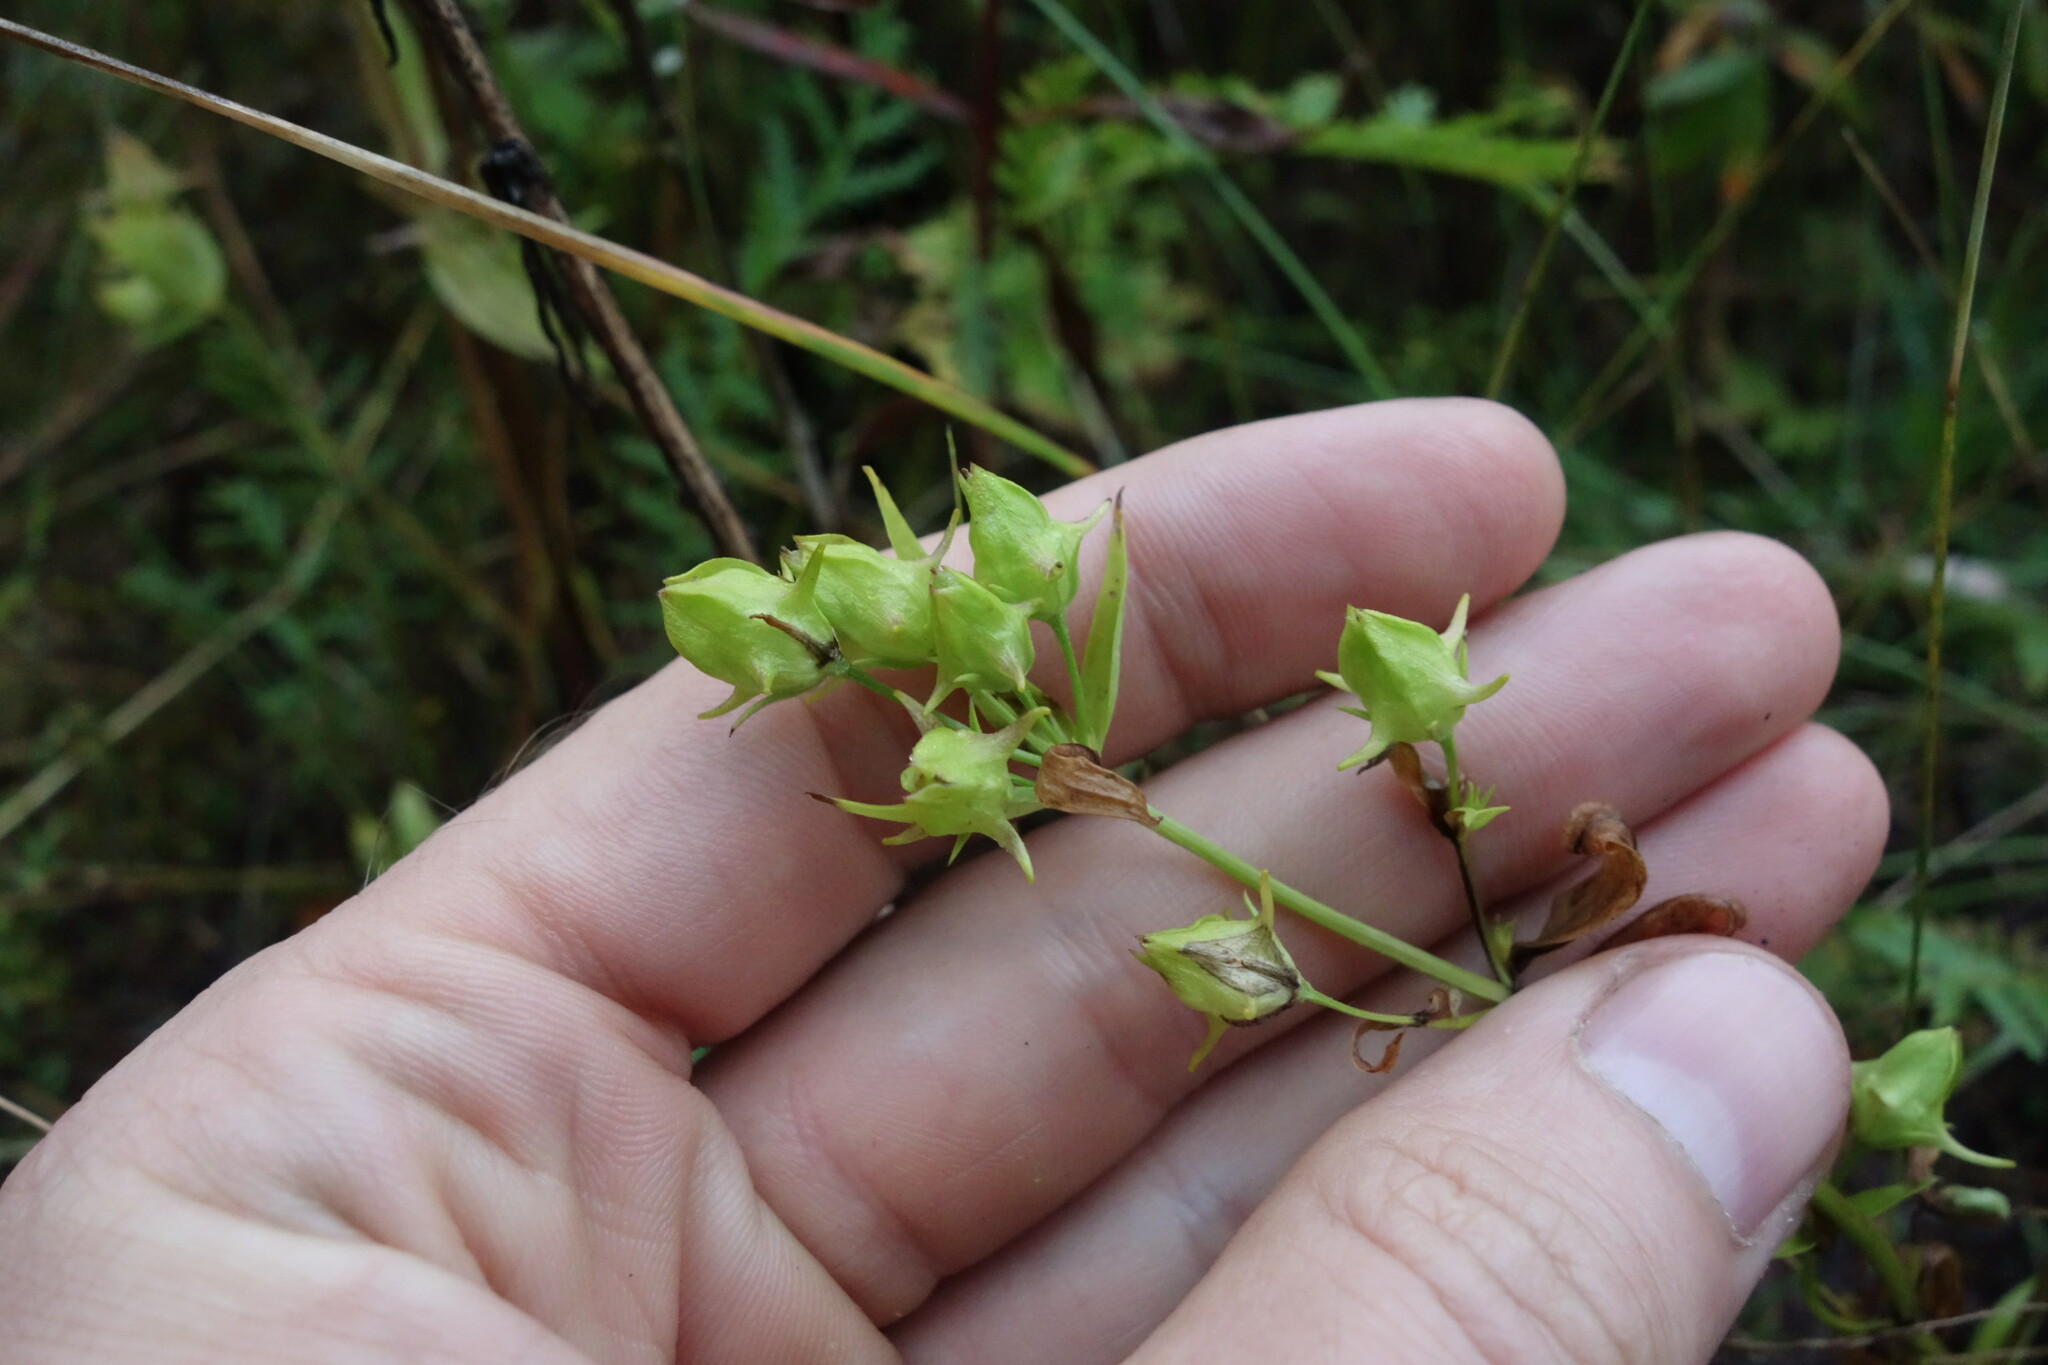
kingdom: Plantae
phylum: Tracheophyta
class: Magnoliopsida
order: Gentianales
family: Gentianaceae
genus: Halenia
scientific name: Halenia corniculata
